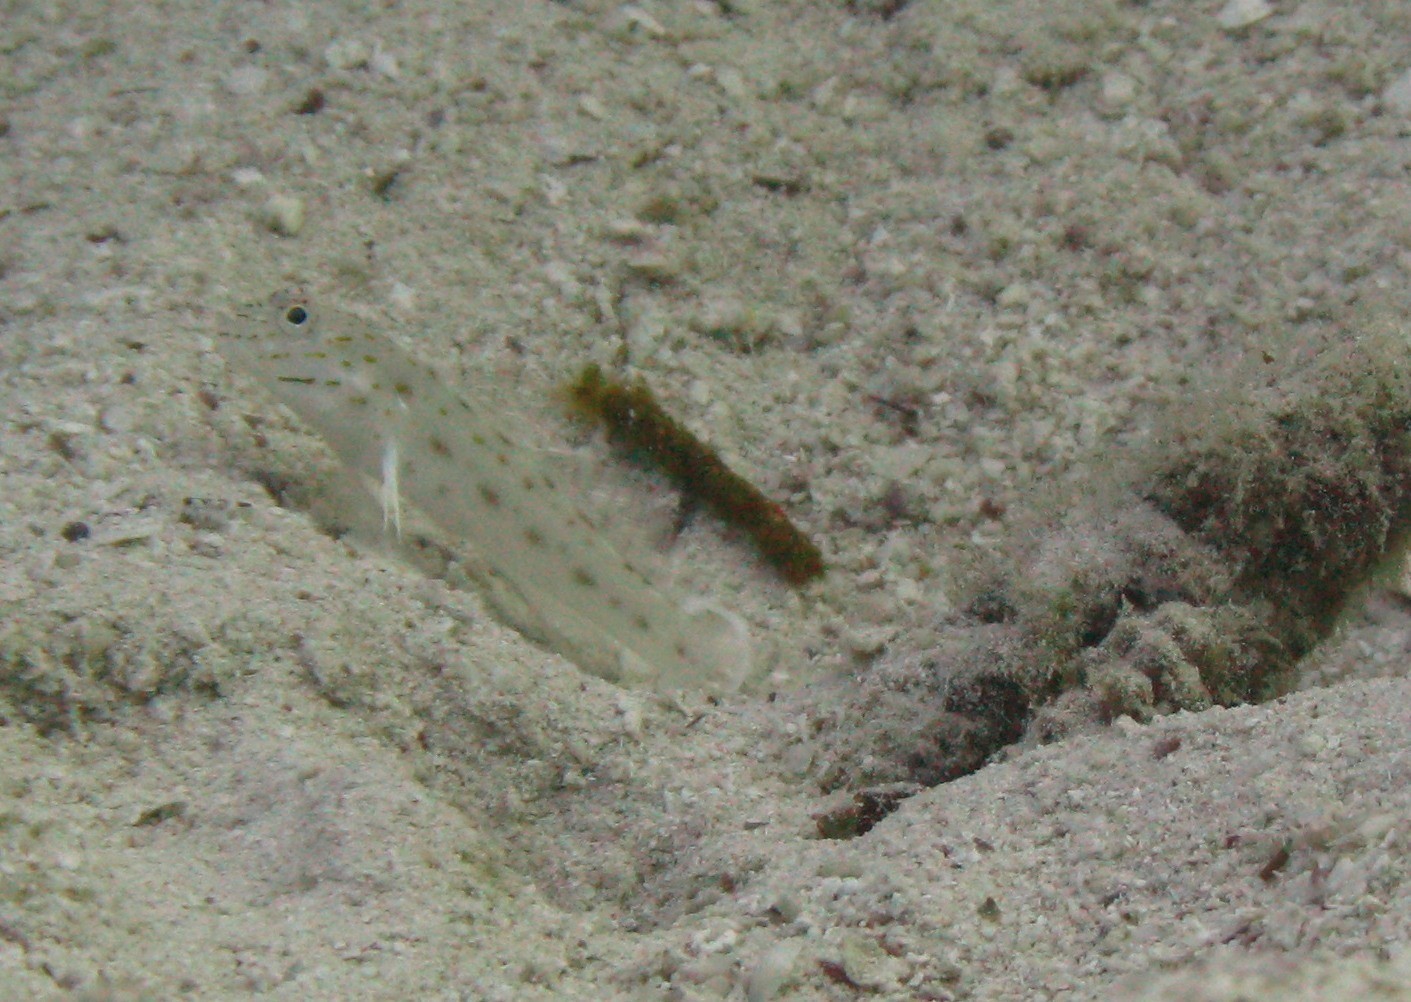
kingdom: Animalia
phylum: Chordata
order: Perciformes
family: Gobiidae
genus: Ctenogobiops
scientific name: Ctenogobiops crocineus
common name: Silverspot shrimpgoby
